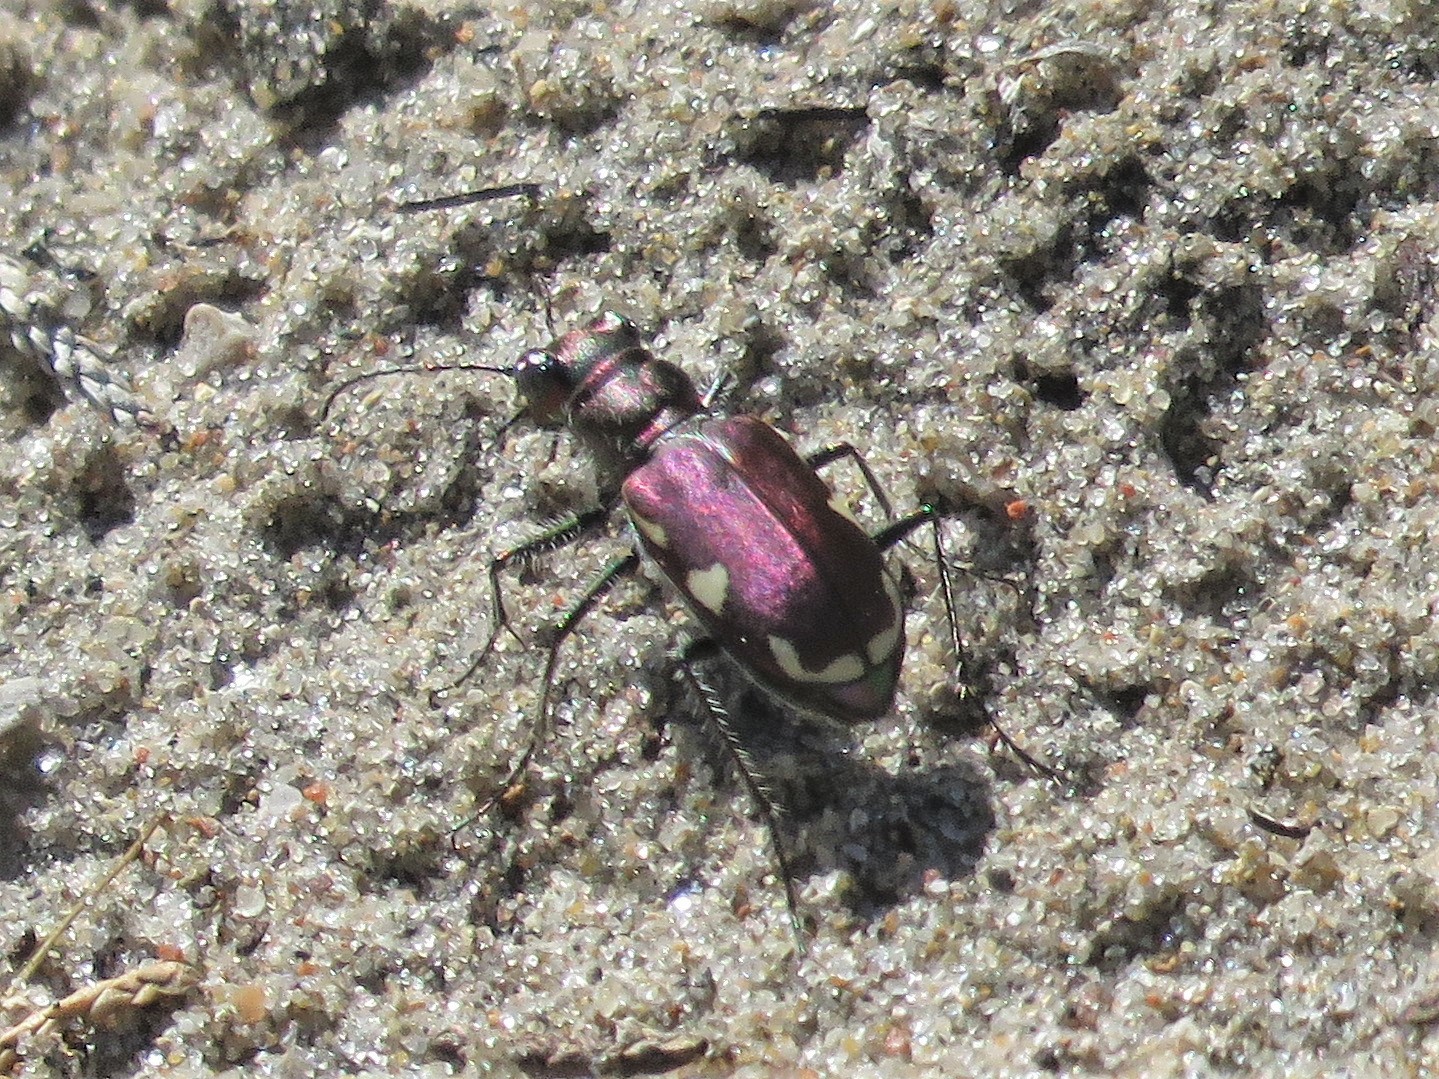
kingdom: Animalia
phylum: Arthropoda
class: Insecta
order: Coleoptera
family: Carabidae
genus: Cicindela
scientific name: Cicindela scutellaris
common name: Festive tiger beetle
